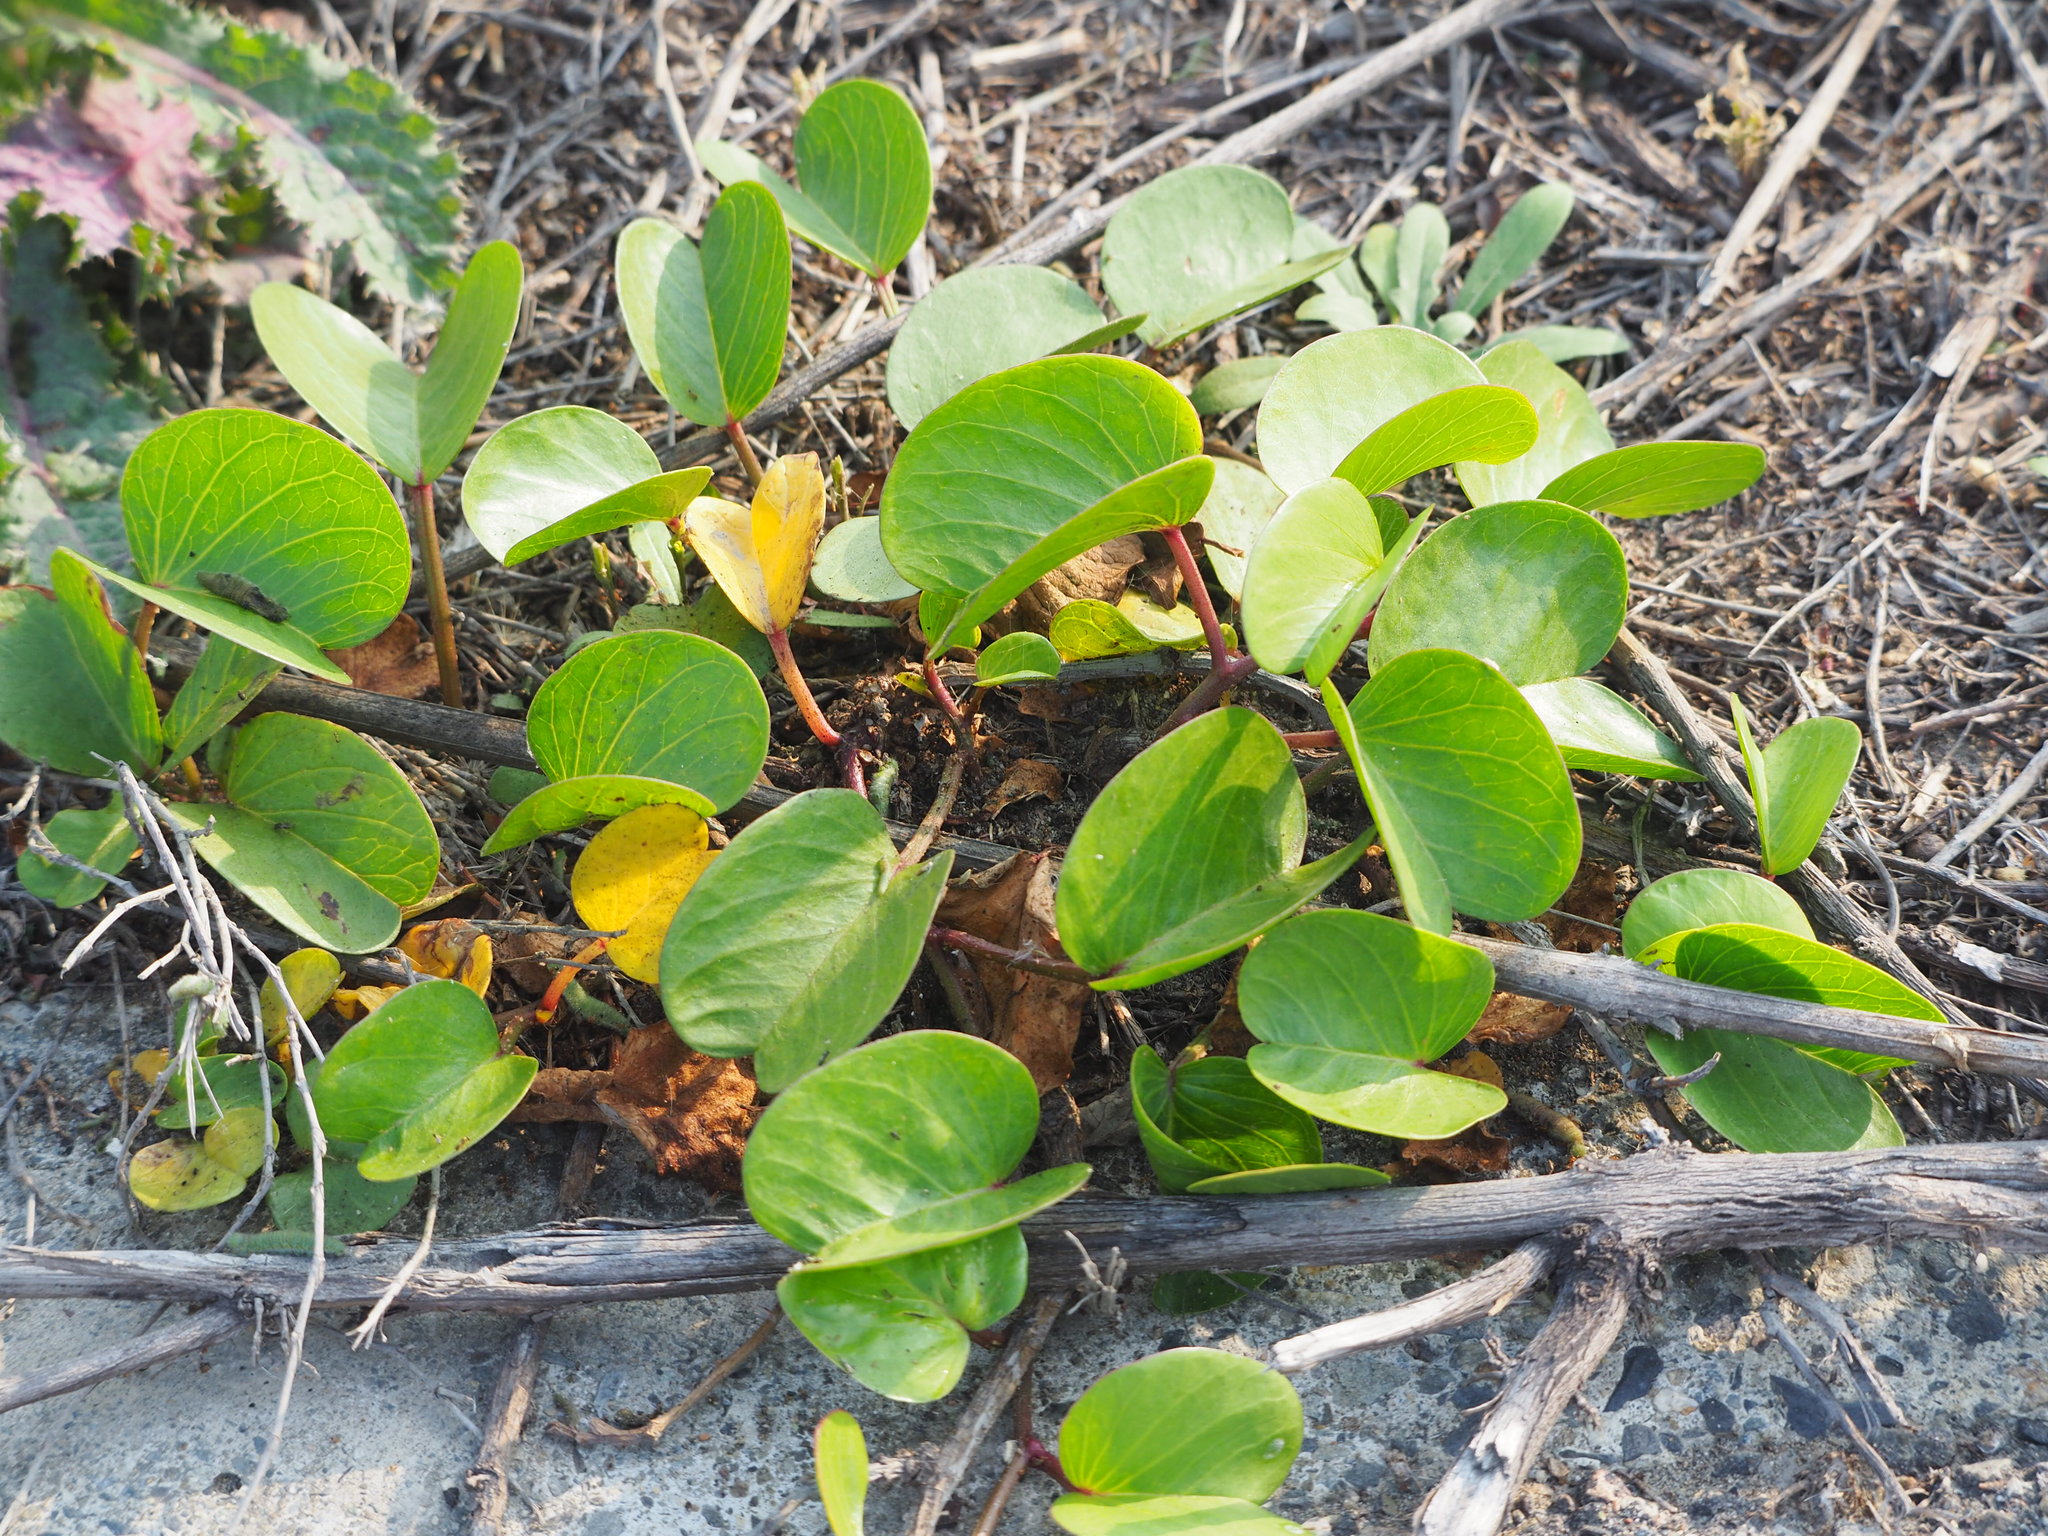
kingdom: Plantae
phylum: Tracheophyta
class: Magnoliopsida
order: Solanales
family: Convolvulaceae
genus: Ipomoea
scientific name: Ipomoea pes-caprae
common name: Beach morning glory
